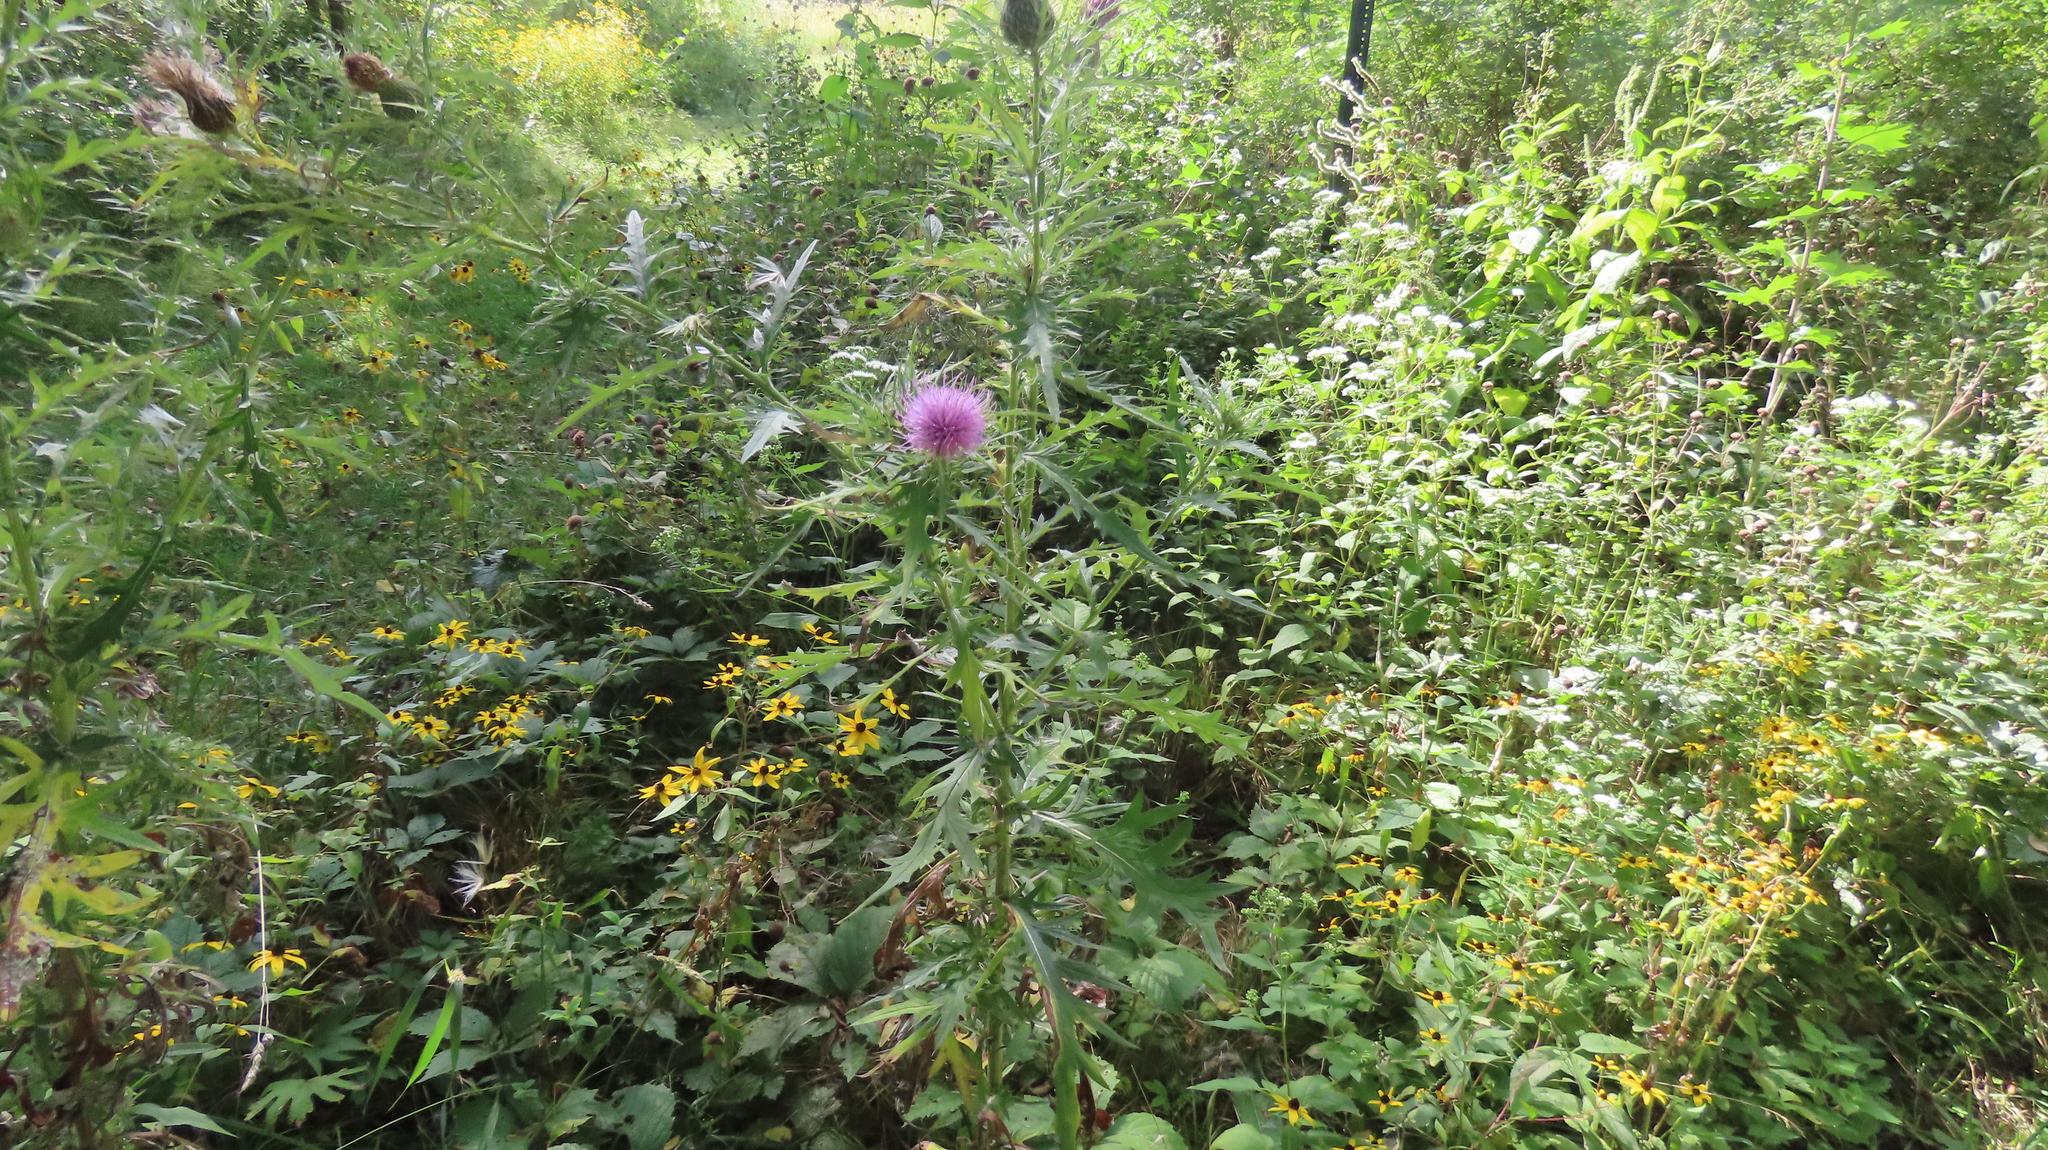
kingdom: Plantae
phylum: Tracheophyta
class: Magnoliopsida
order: Asterales
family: Asteraceae
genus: Cirsium
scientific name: Cirsium discolor
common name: Field thistle
